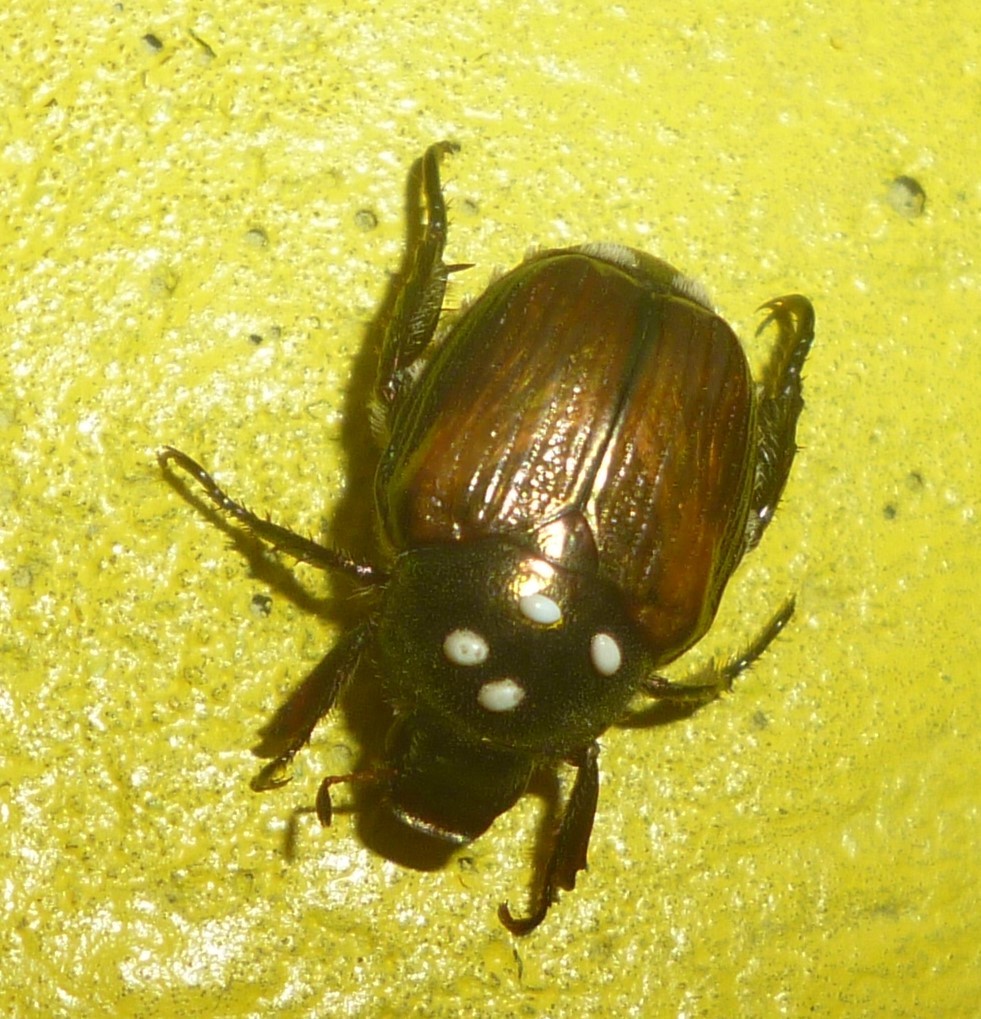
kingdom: Animalia
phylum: Arthropoda
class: Insecta
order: Diptera
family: Tachinidae
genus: Istocheta
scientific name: Istocheta aldrichi
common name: Parasitic wasp
